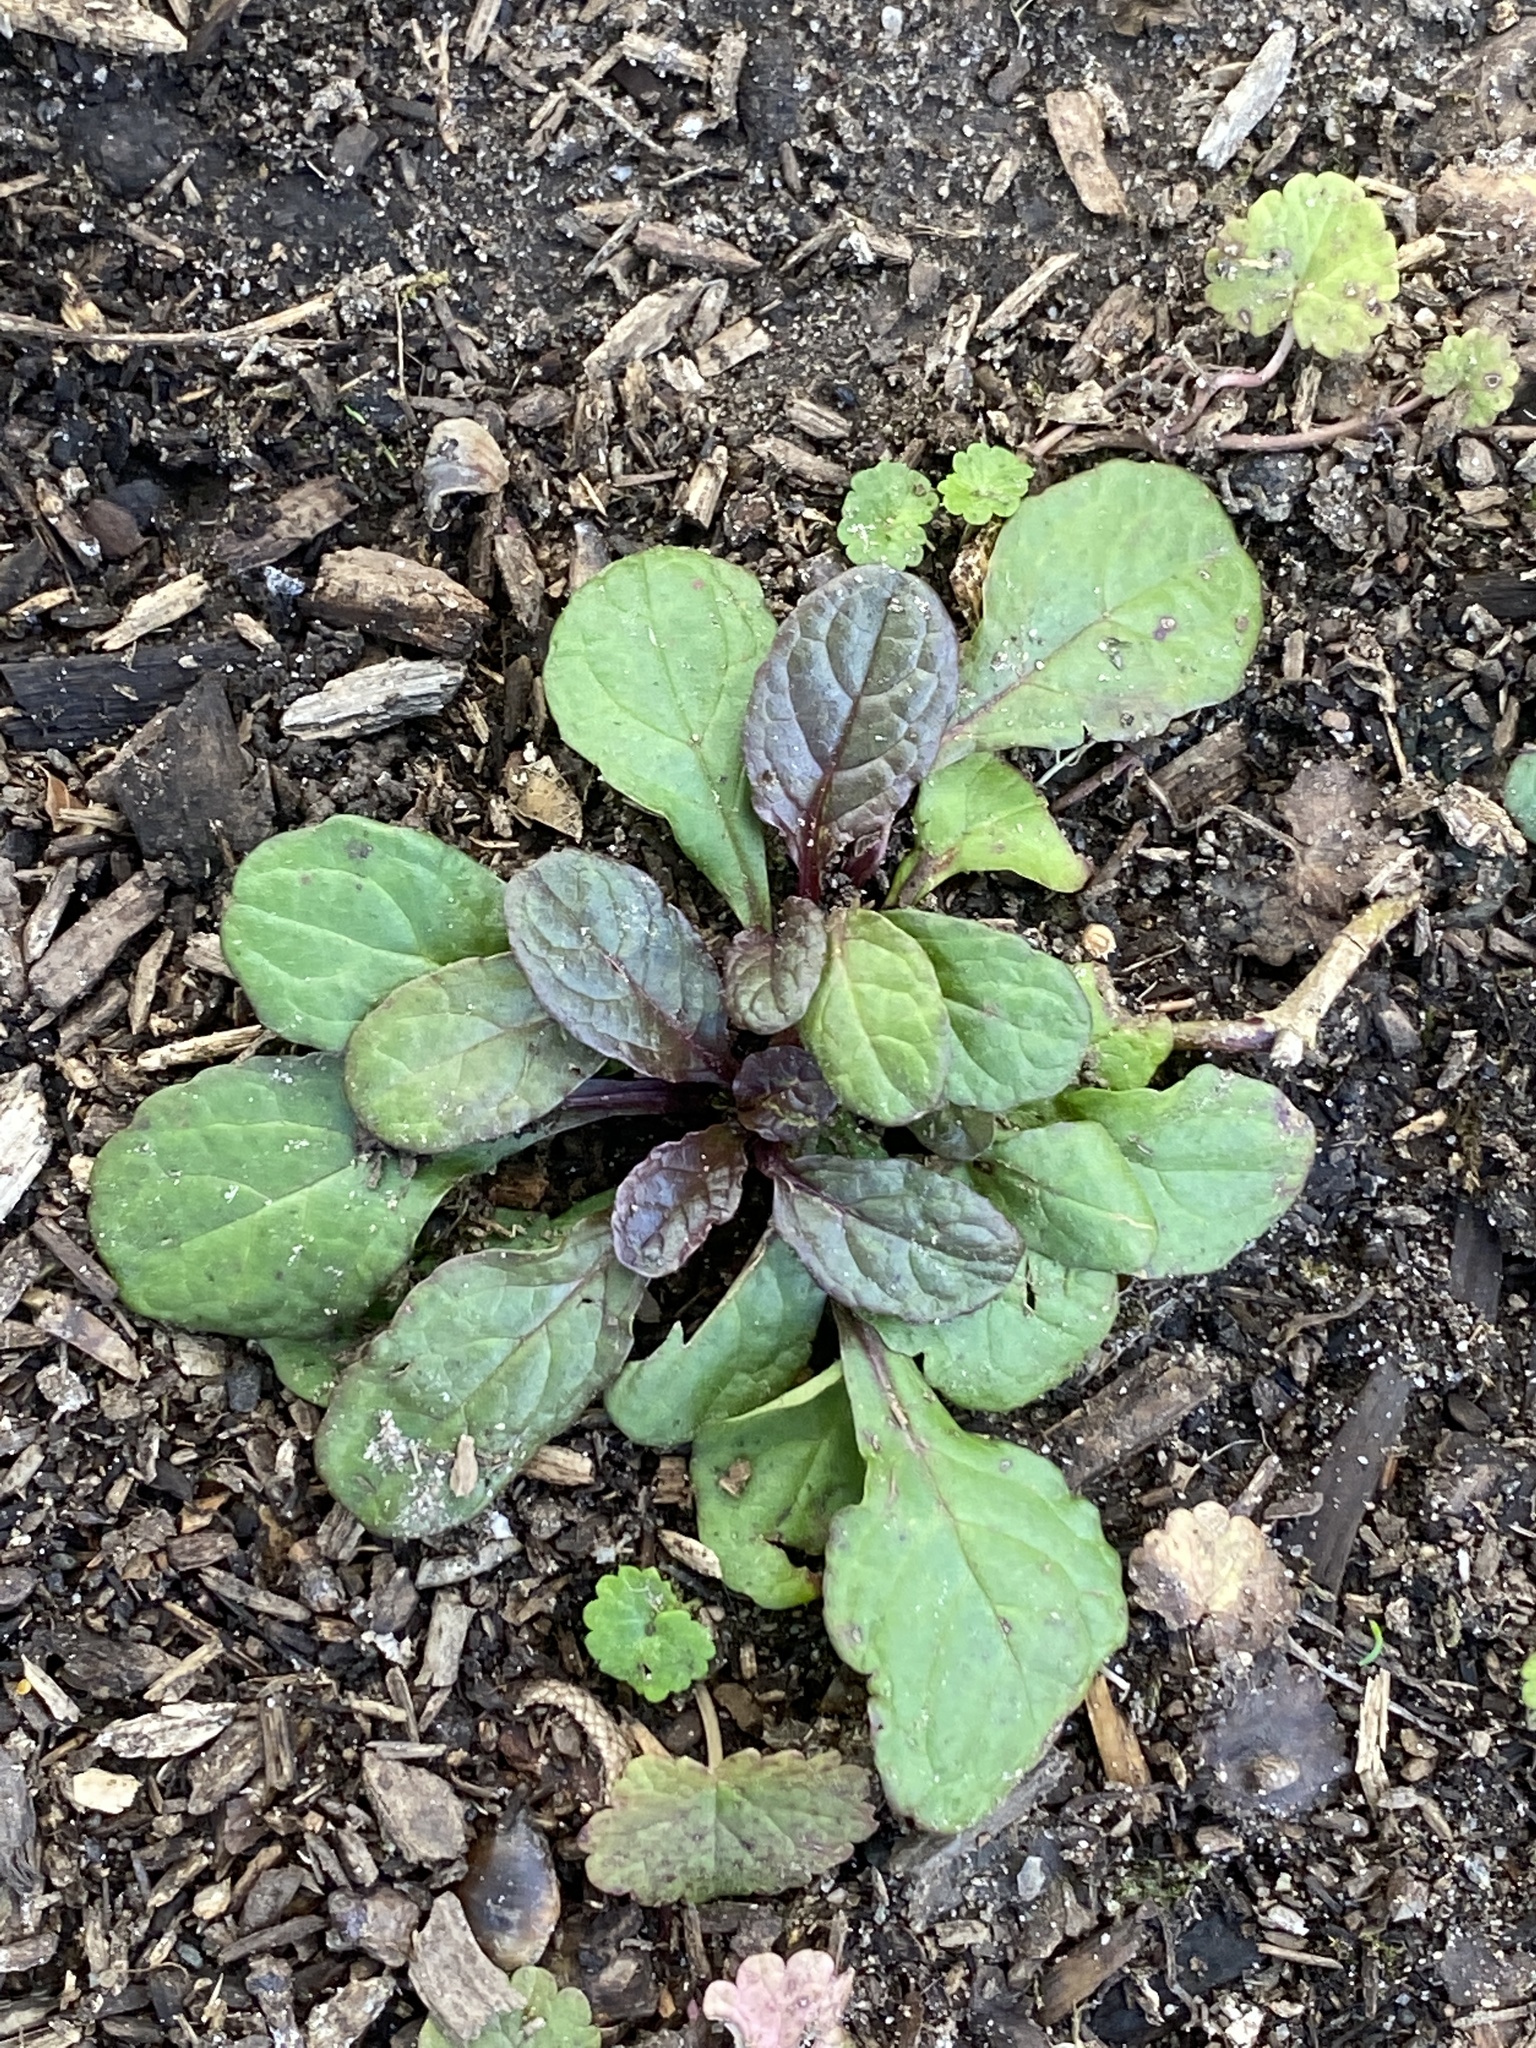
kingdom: Plantae
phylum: Tracheophyta
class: Magnoliopsida
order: Lamiales
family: Lamiaceae
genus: Ajuga
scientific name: Ajuga reptans
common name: Bugle
